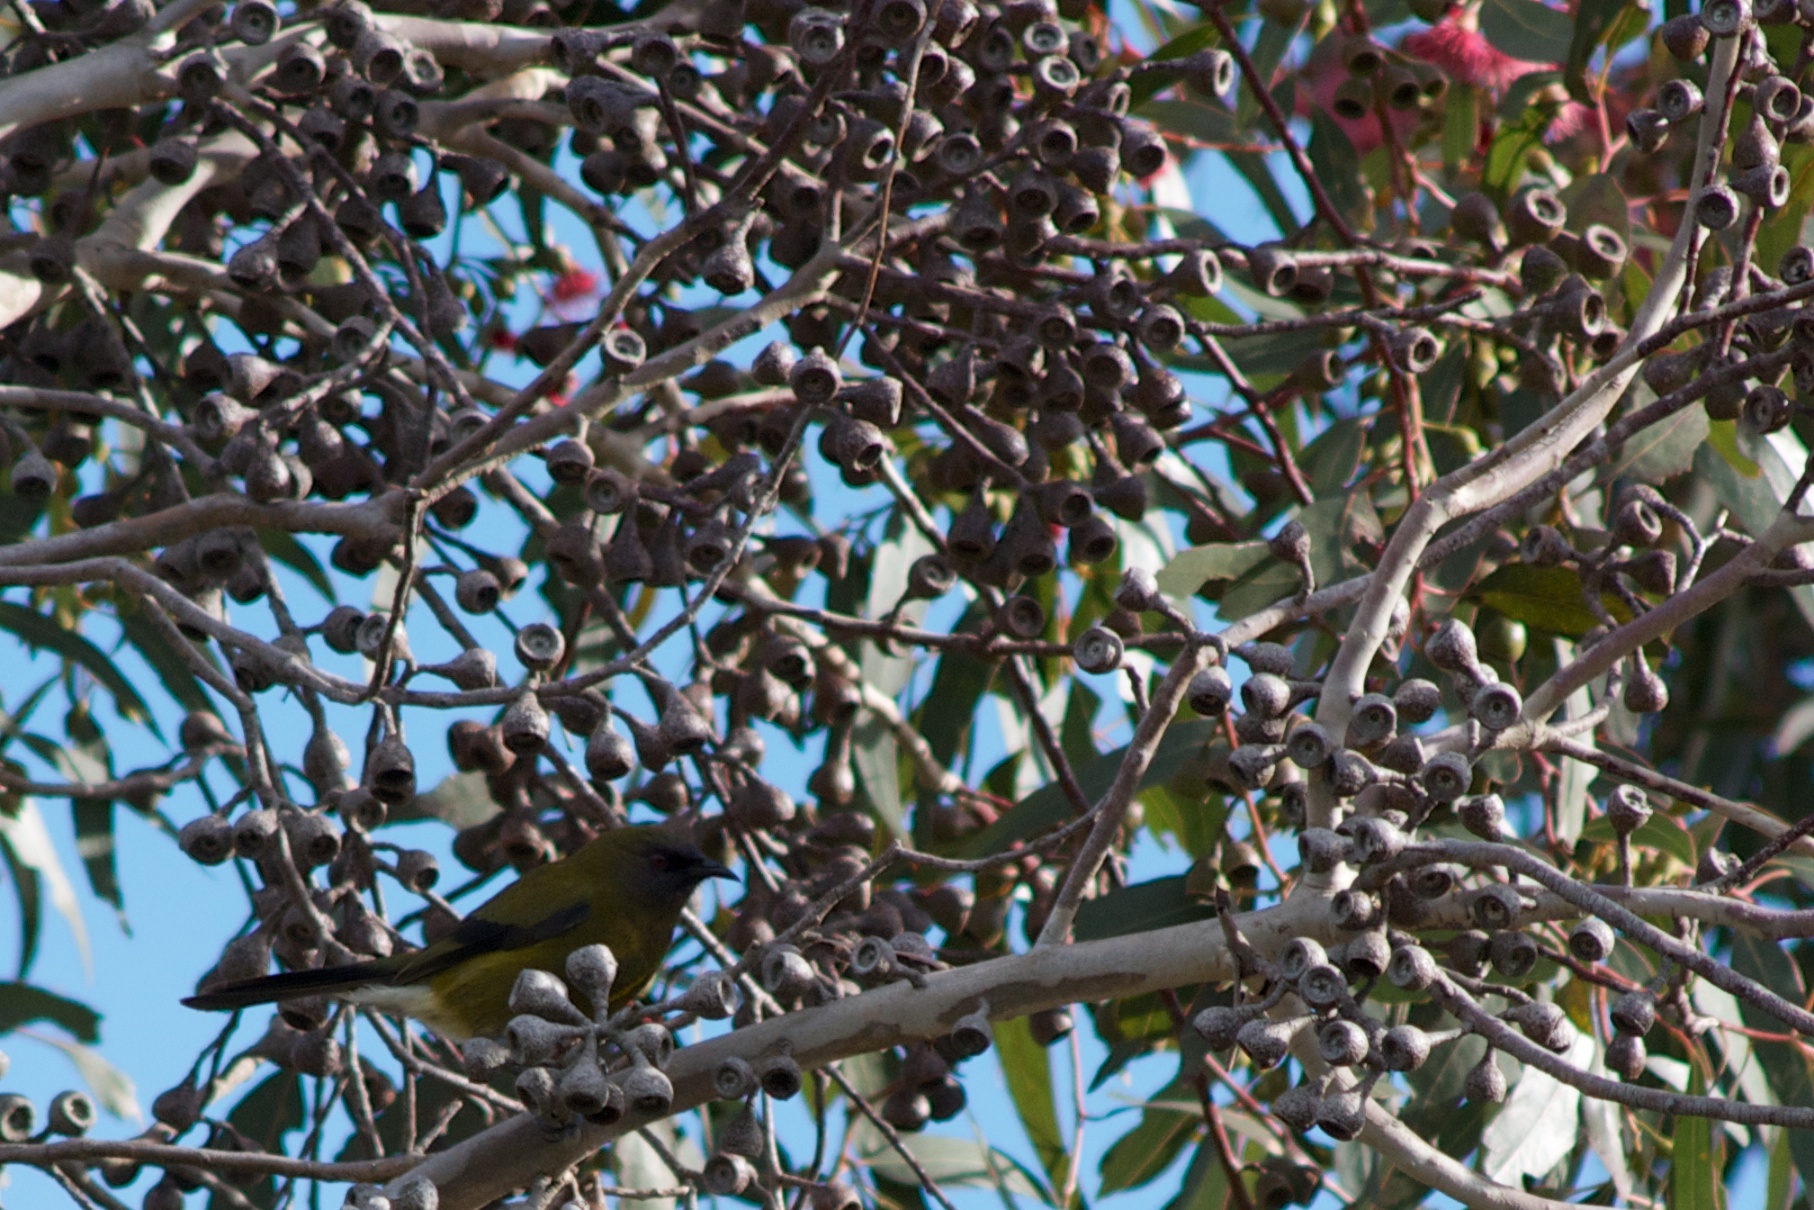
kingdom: Animalia
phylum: Chordata
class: Aves
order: Passeriformes
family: Meliphagidae
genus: Anthornis
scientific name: Anthornis melanura
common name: New zealand bellbird
